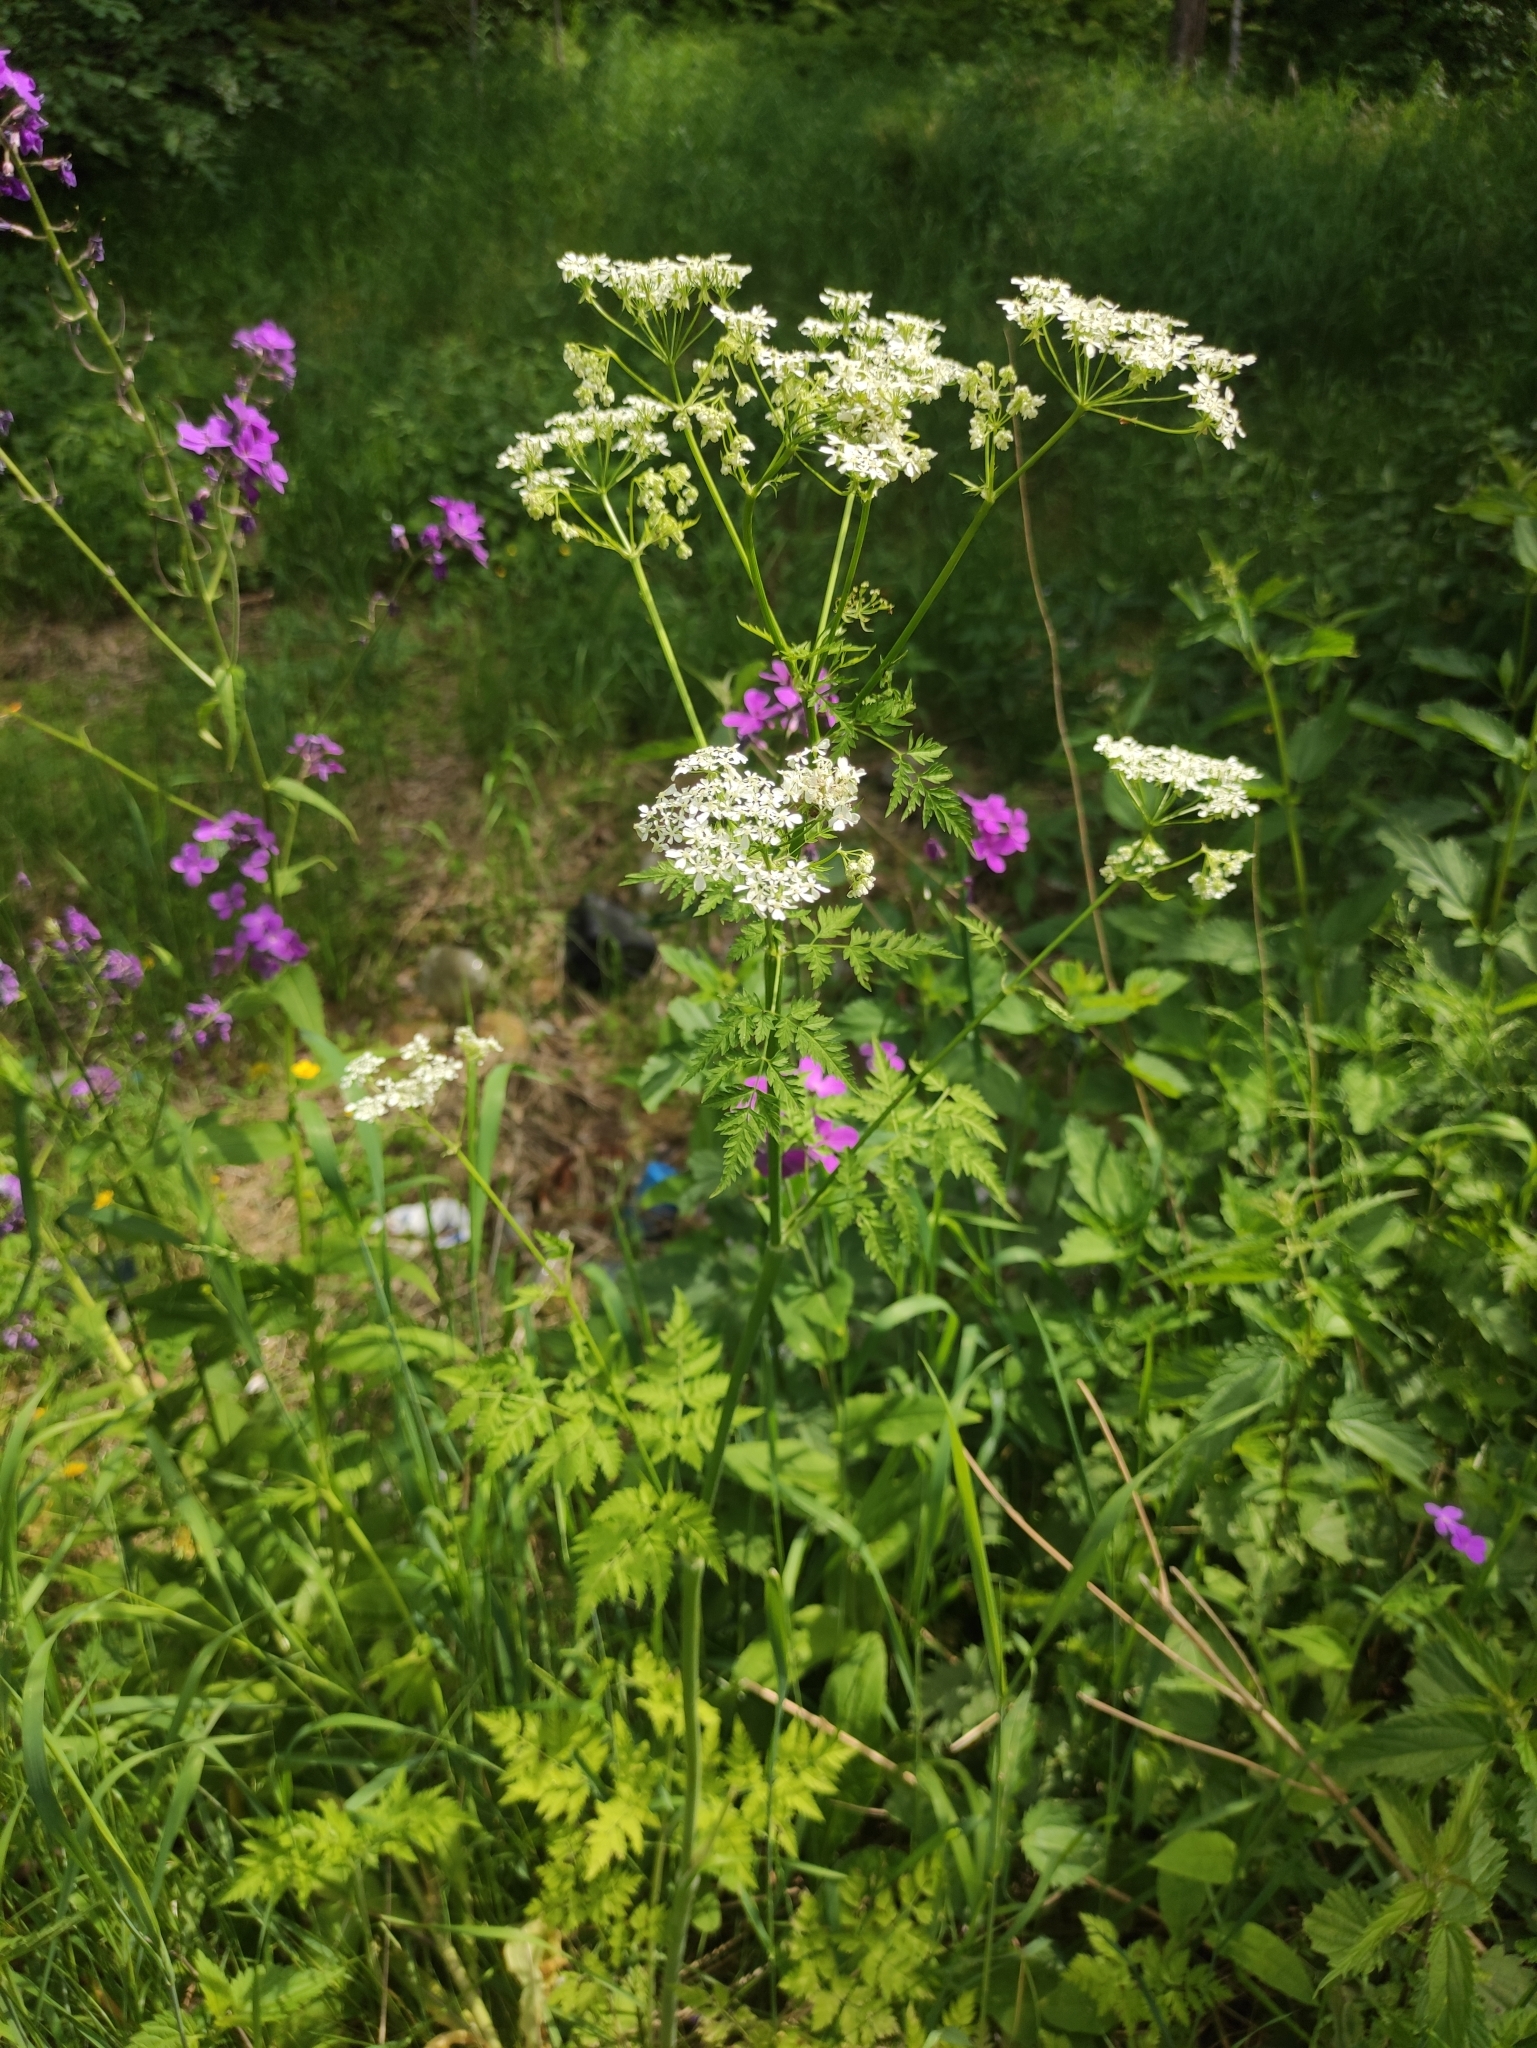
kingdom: Plantae
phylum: Tracheophyta
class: Magnoliopsida
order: Apiales
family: Apiaceae
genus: Anthriscus
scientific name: Anthriscus sylvestris
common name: Cow parsley
